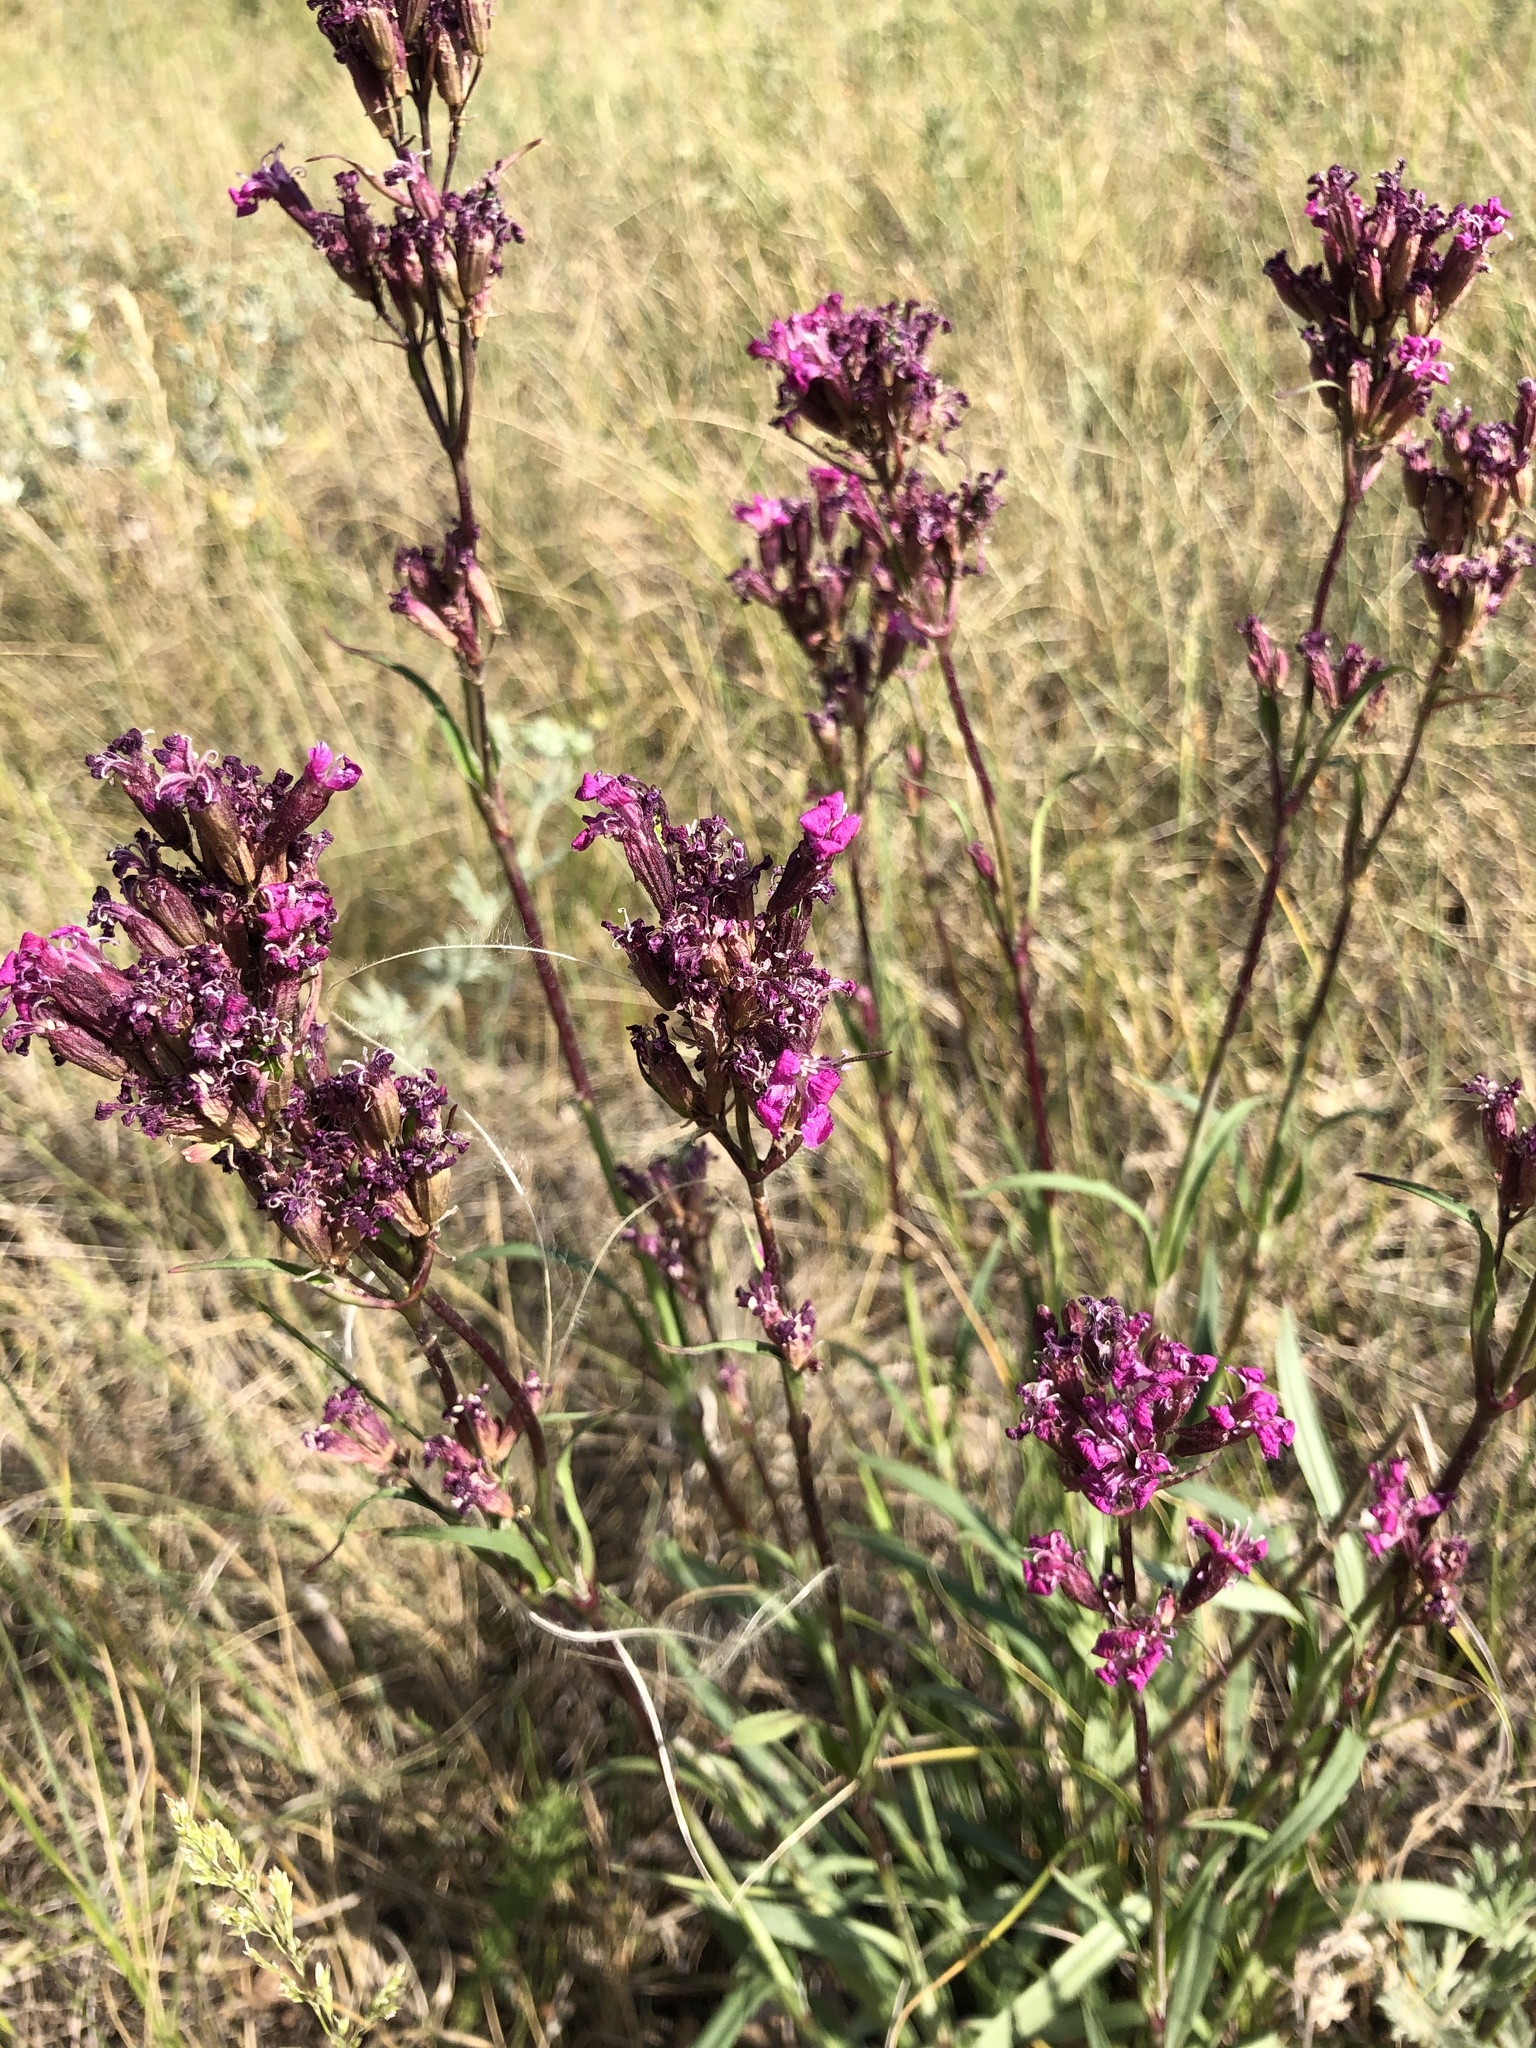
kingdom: Plantae
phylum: Tracheophyta
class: Magnoliopsida
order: Caryophyllales
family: Caryophyllaceae
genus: Viscaria
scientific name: Viscaria vulgaris
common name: Clammy campion
